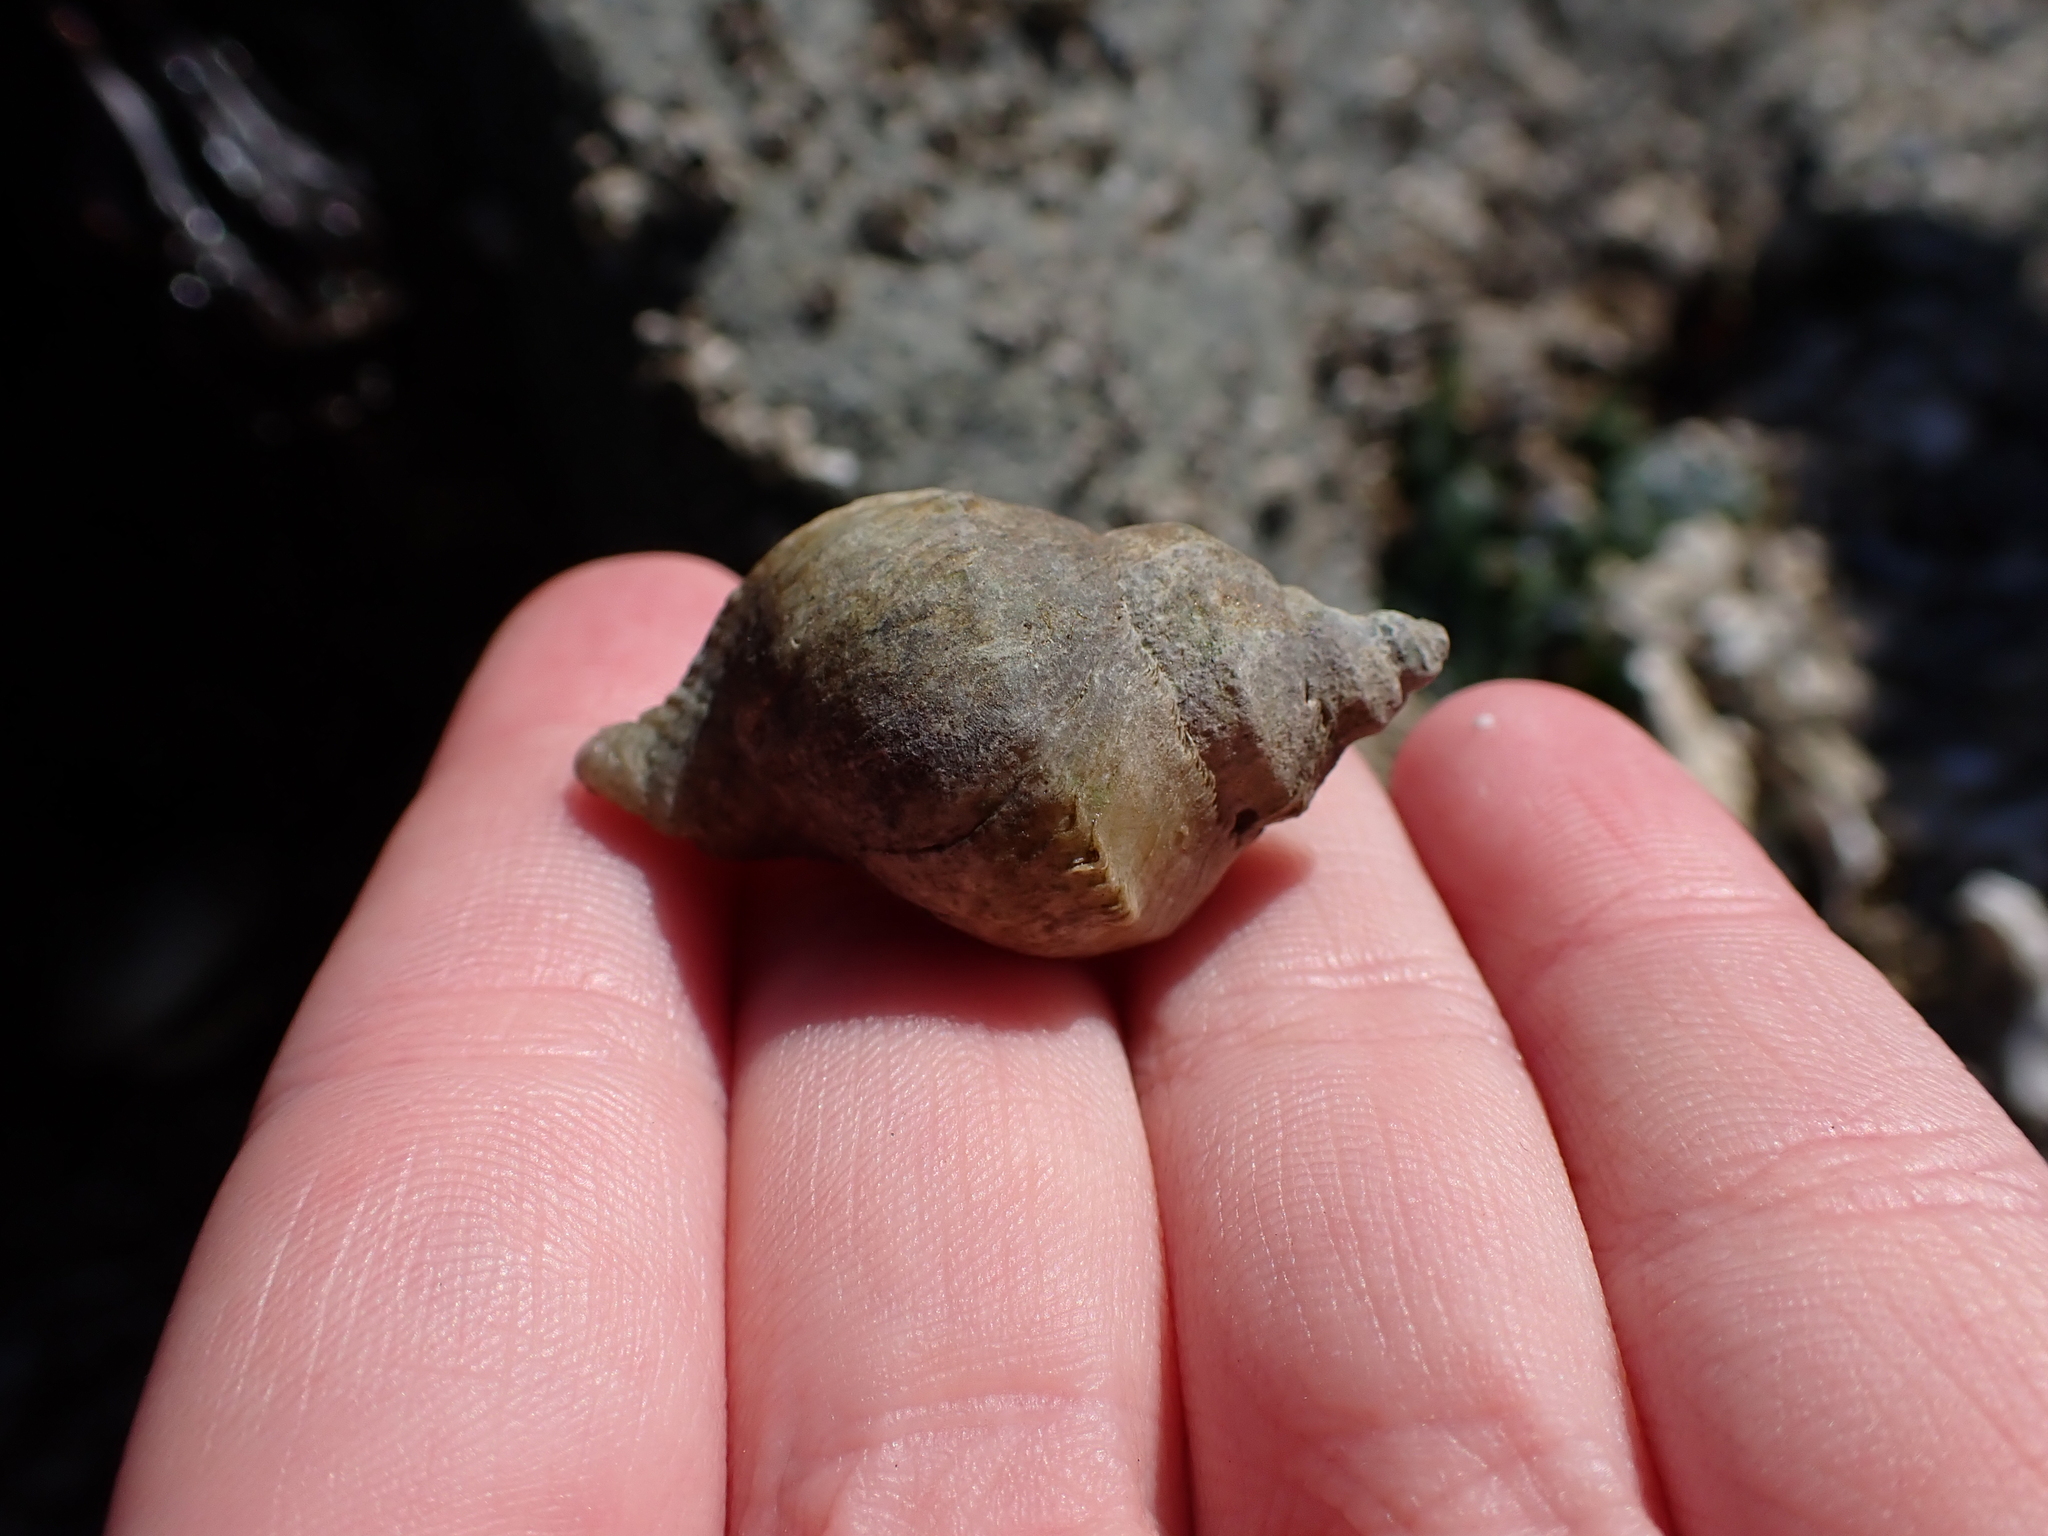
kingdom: Animalia
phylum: Mollusca
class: Gastropoda
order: Neogastropoda
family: Muricidae
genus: Nucella
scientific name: Nucella lamellosa
